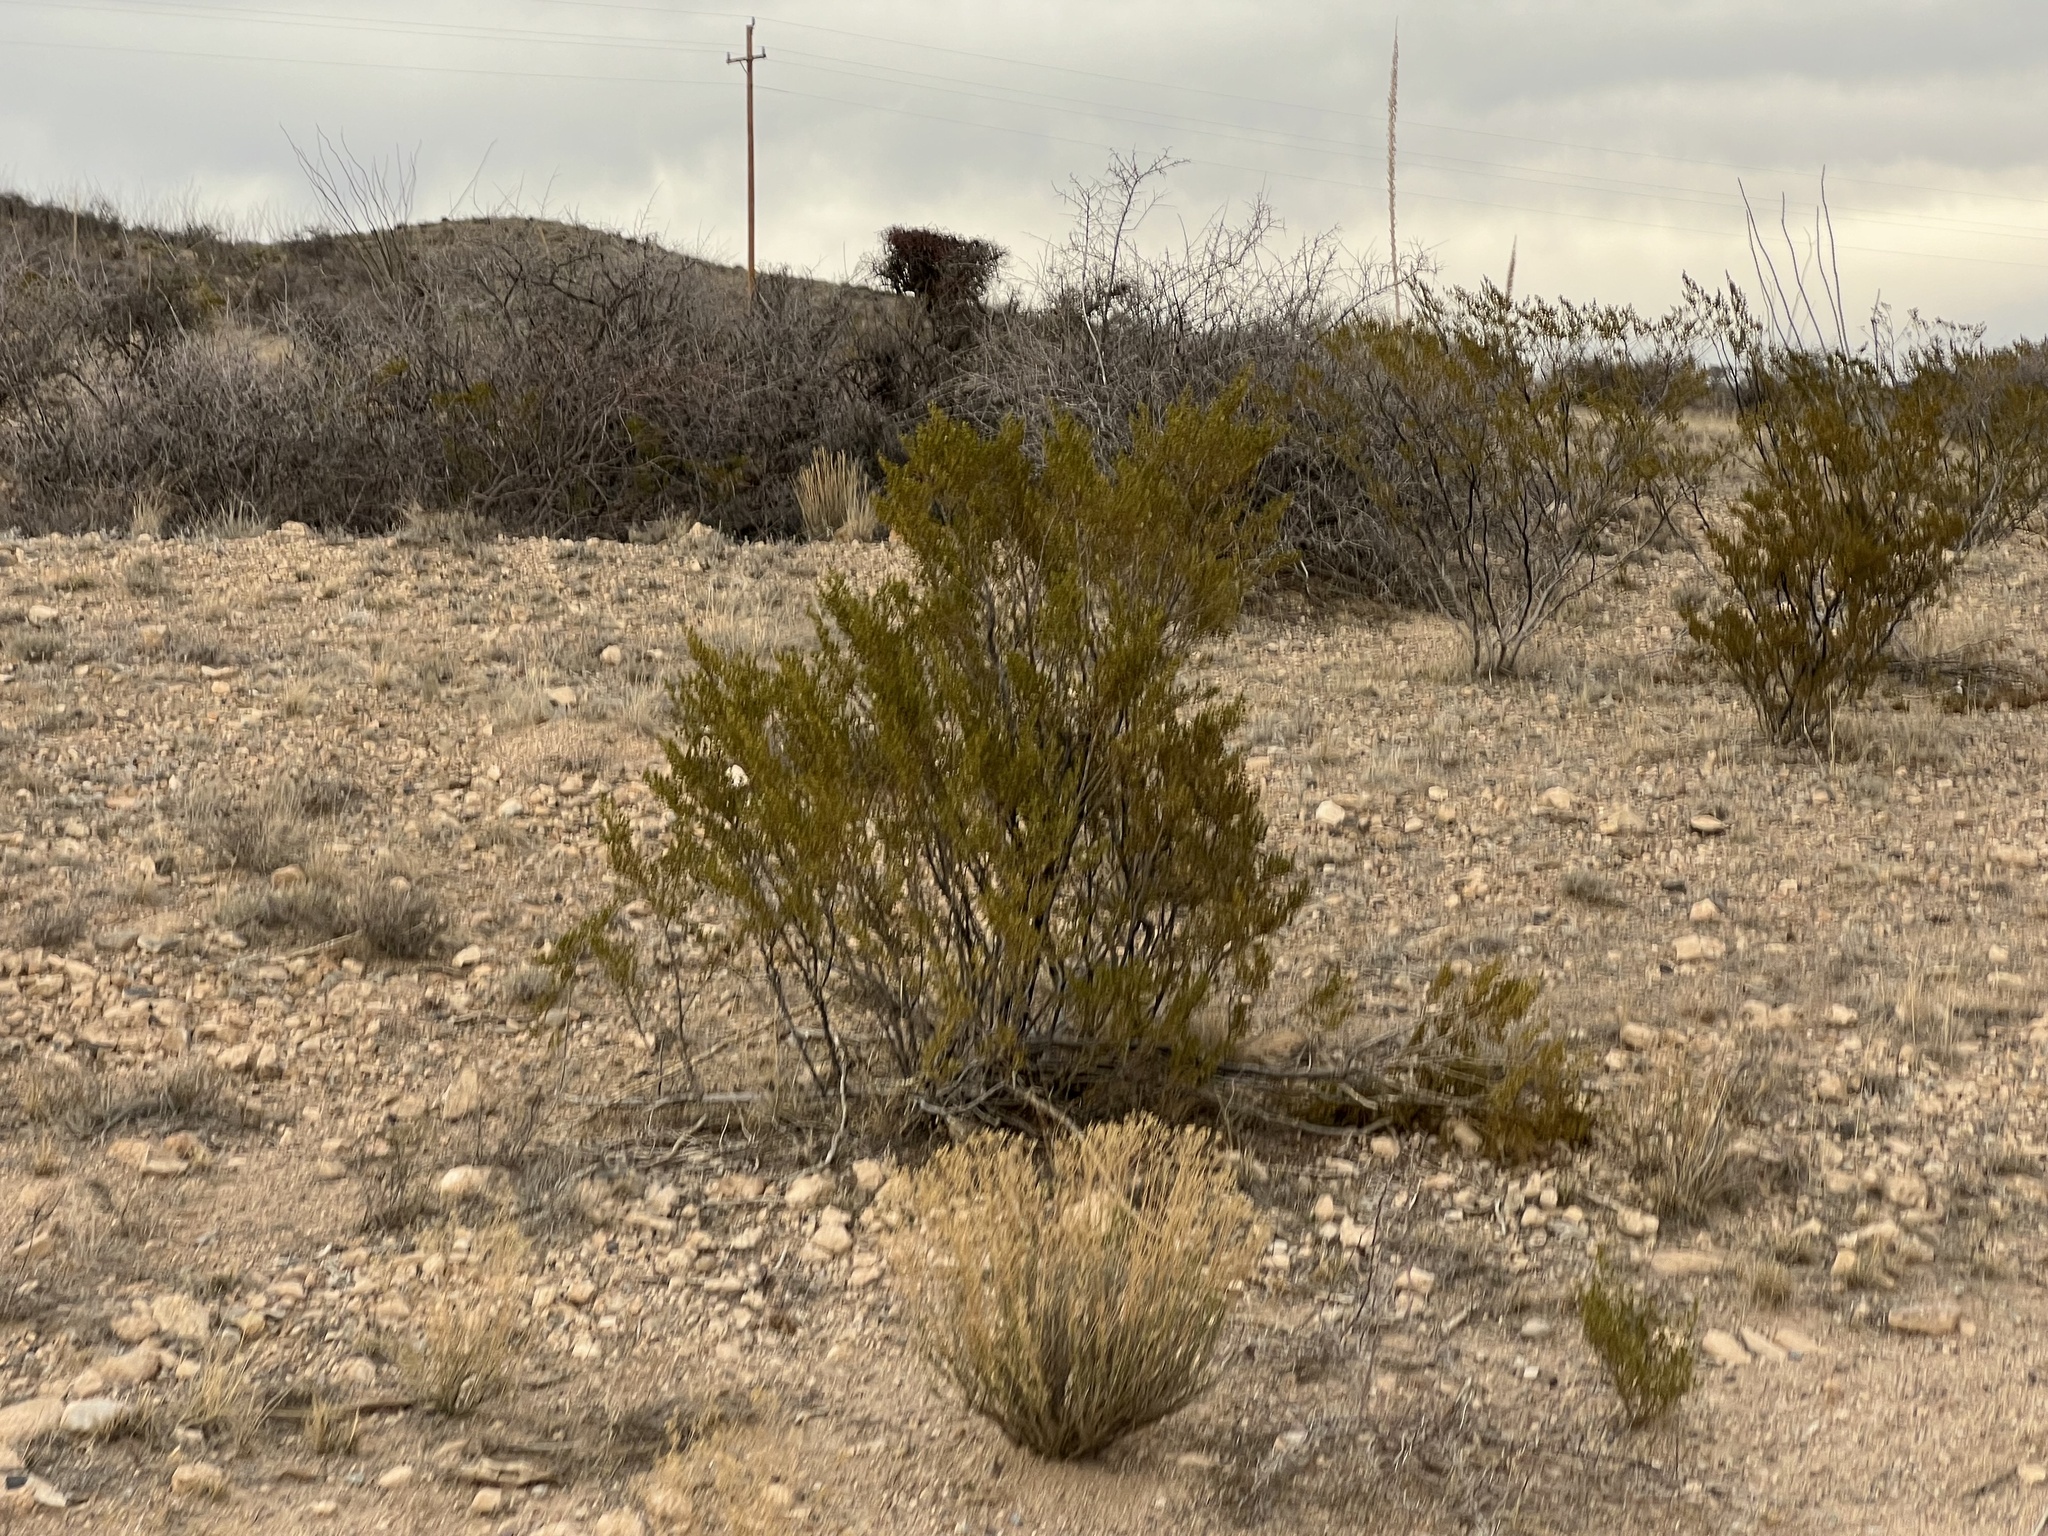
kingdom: Plantae
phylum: Tracheophyta
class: Magnoliopsida
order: Zygophyllales
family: Zygophyllaceae
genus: Larrea
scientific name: Larrea tridentata
